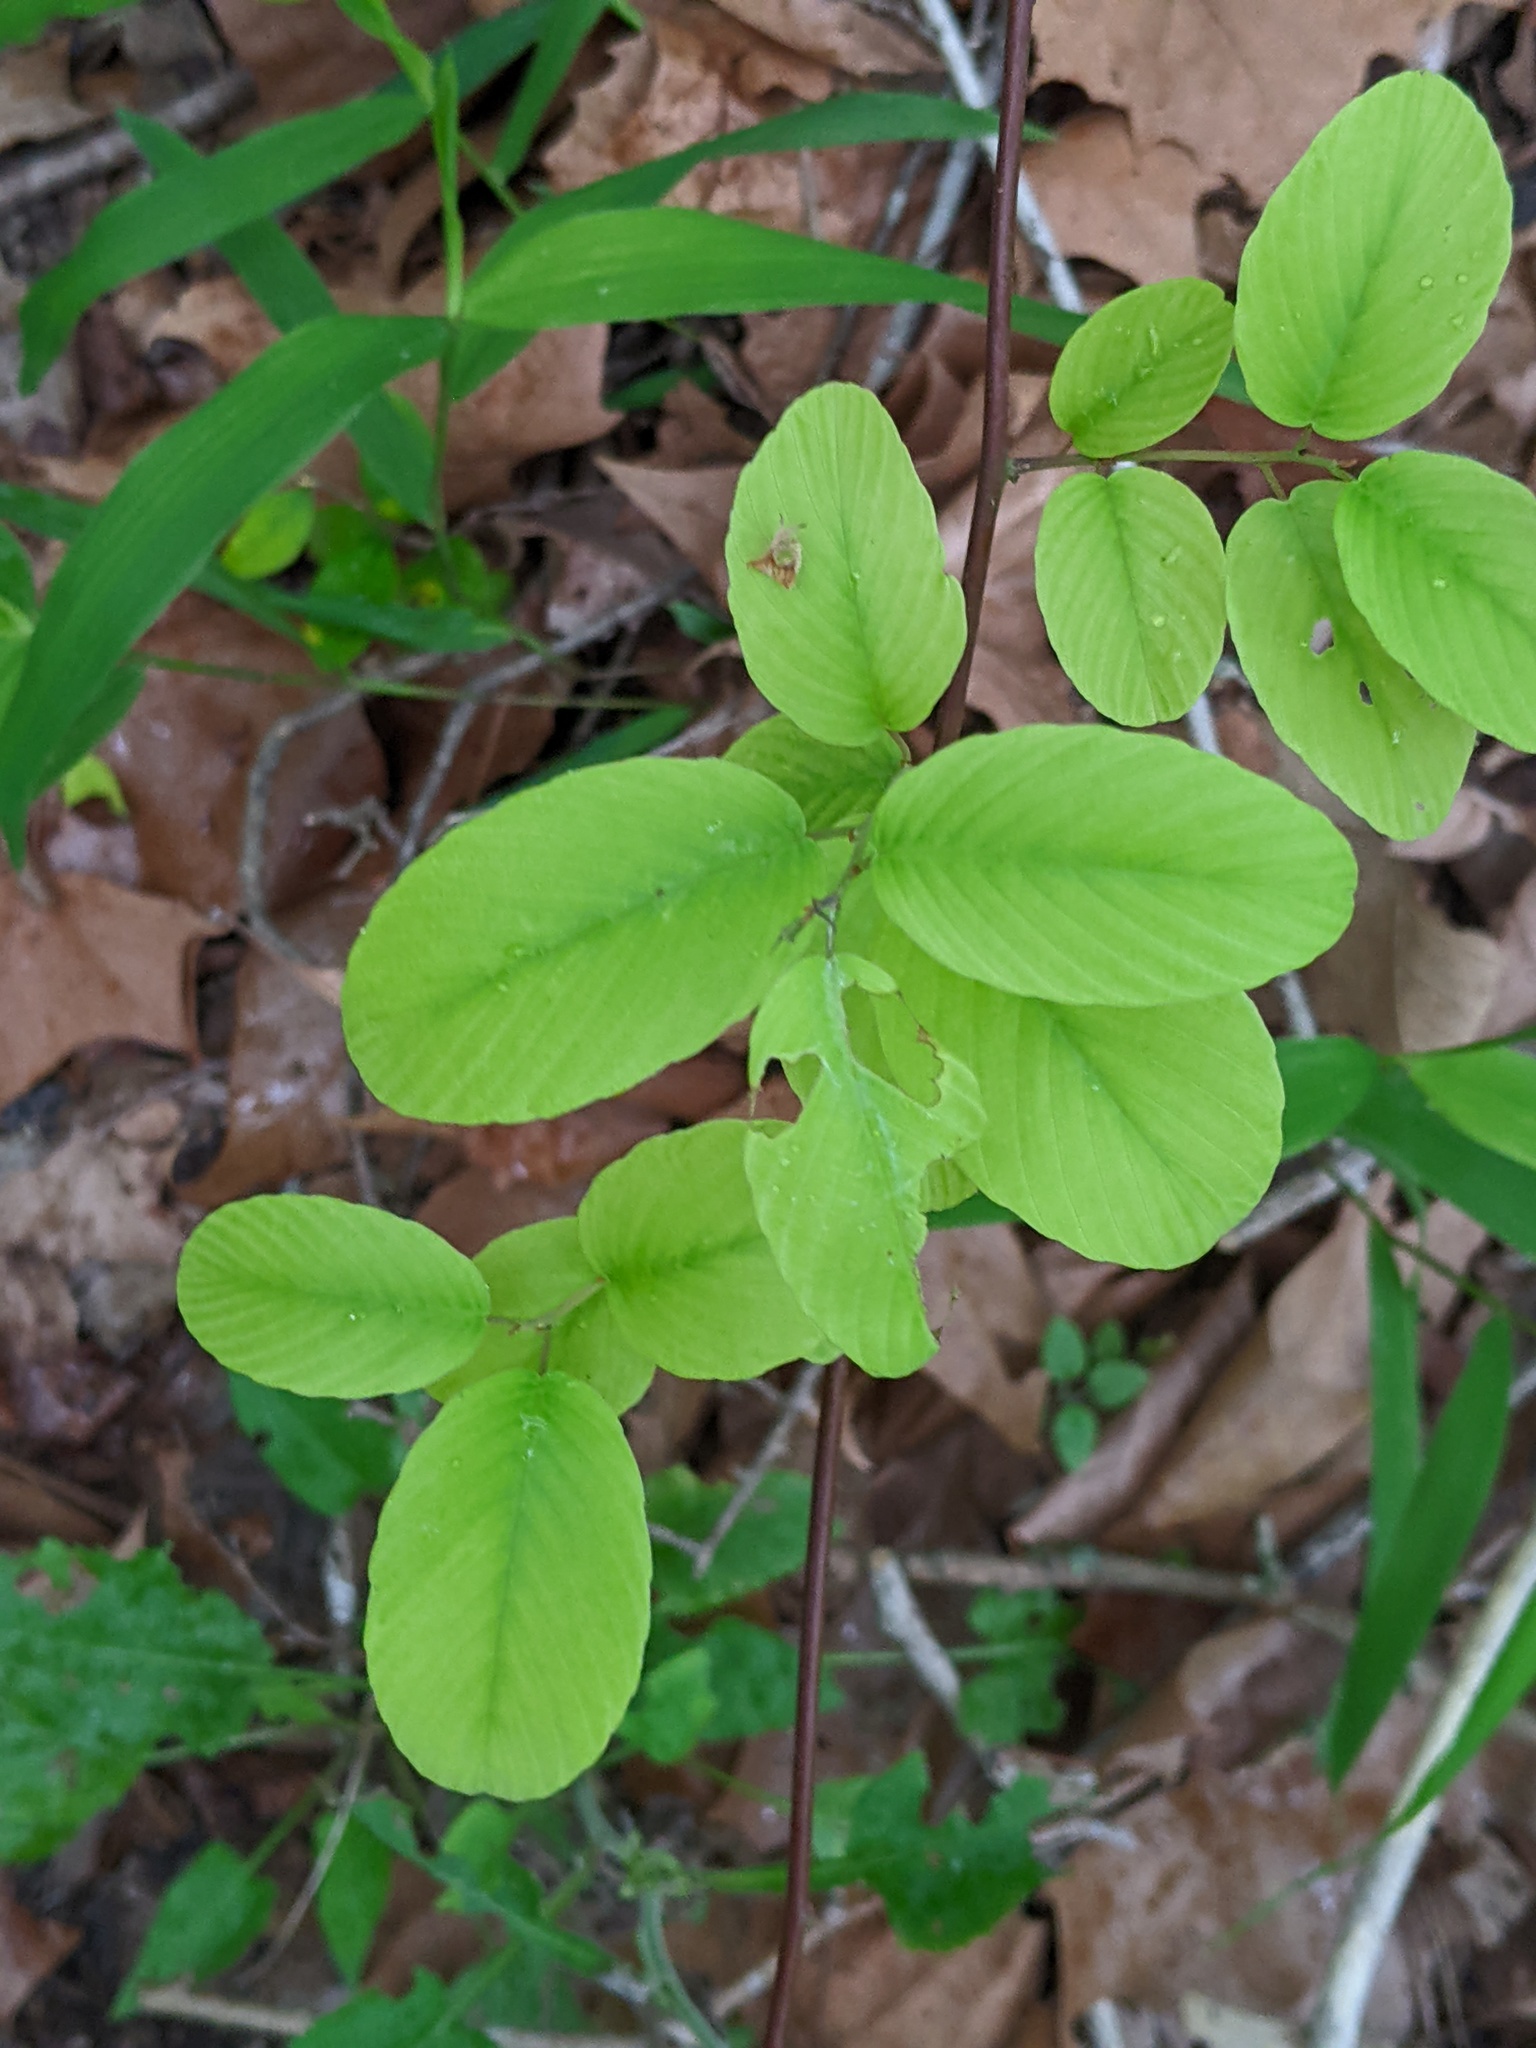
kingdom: Plantae
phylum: Tracheophyta
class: Magnoliopsida
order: Rosales
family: Rhamnaceae
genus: Berchemia
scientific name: Berchemia scandens
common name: Supplejack
